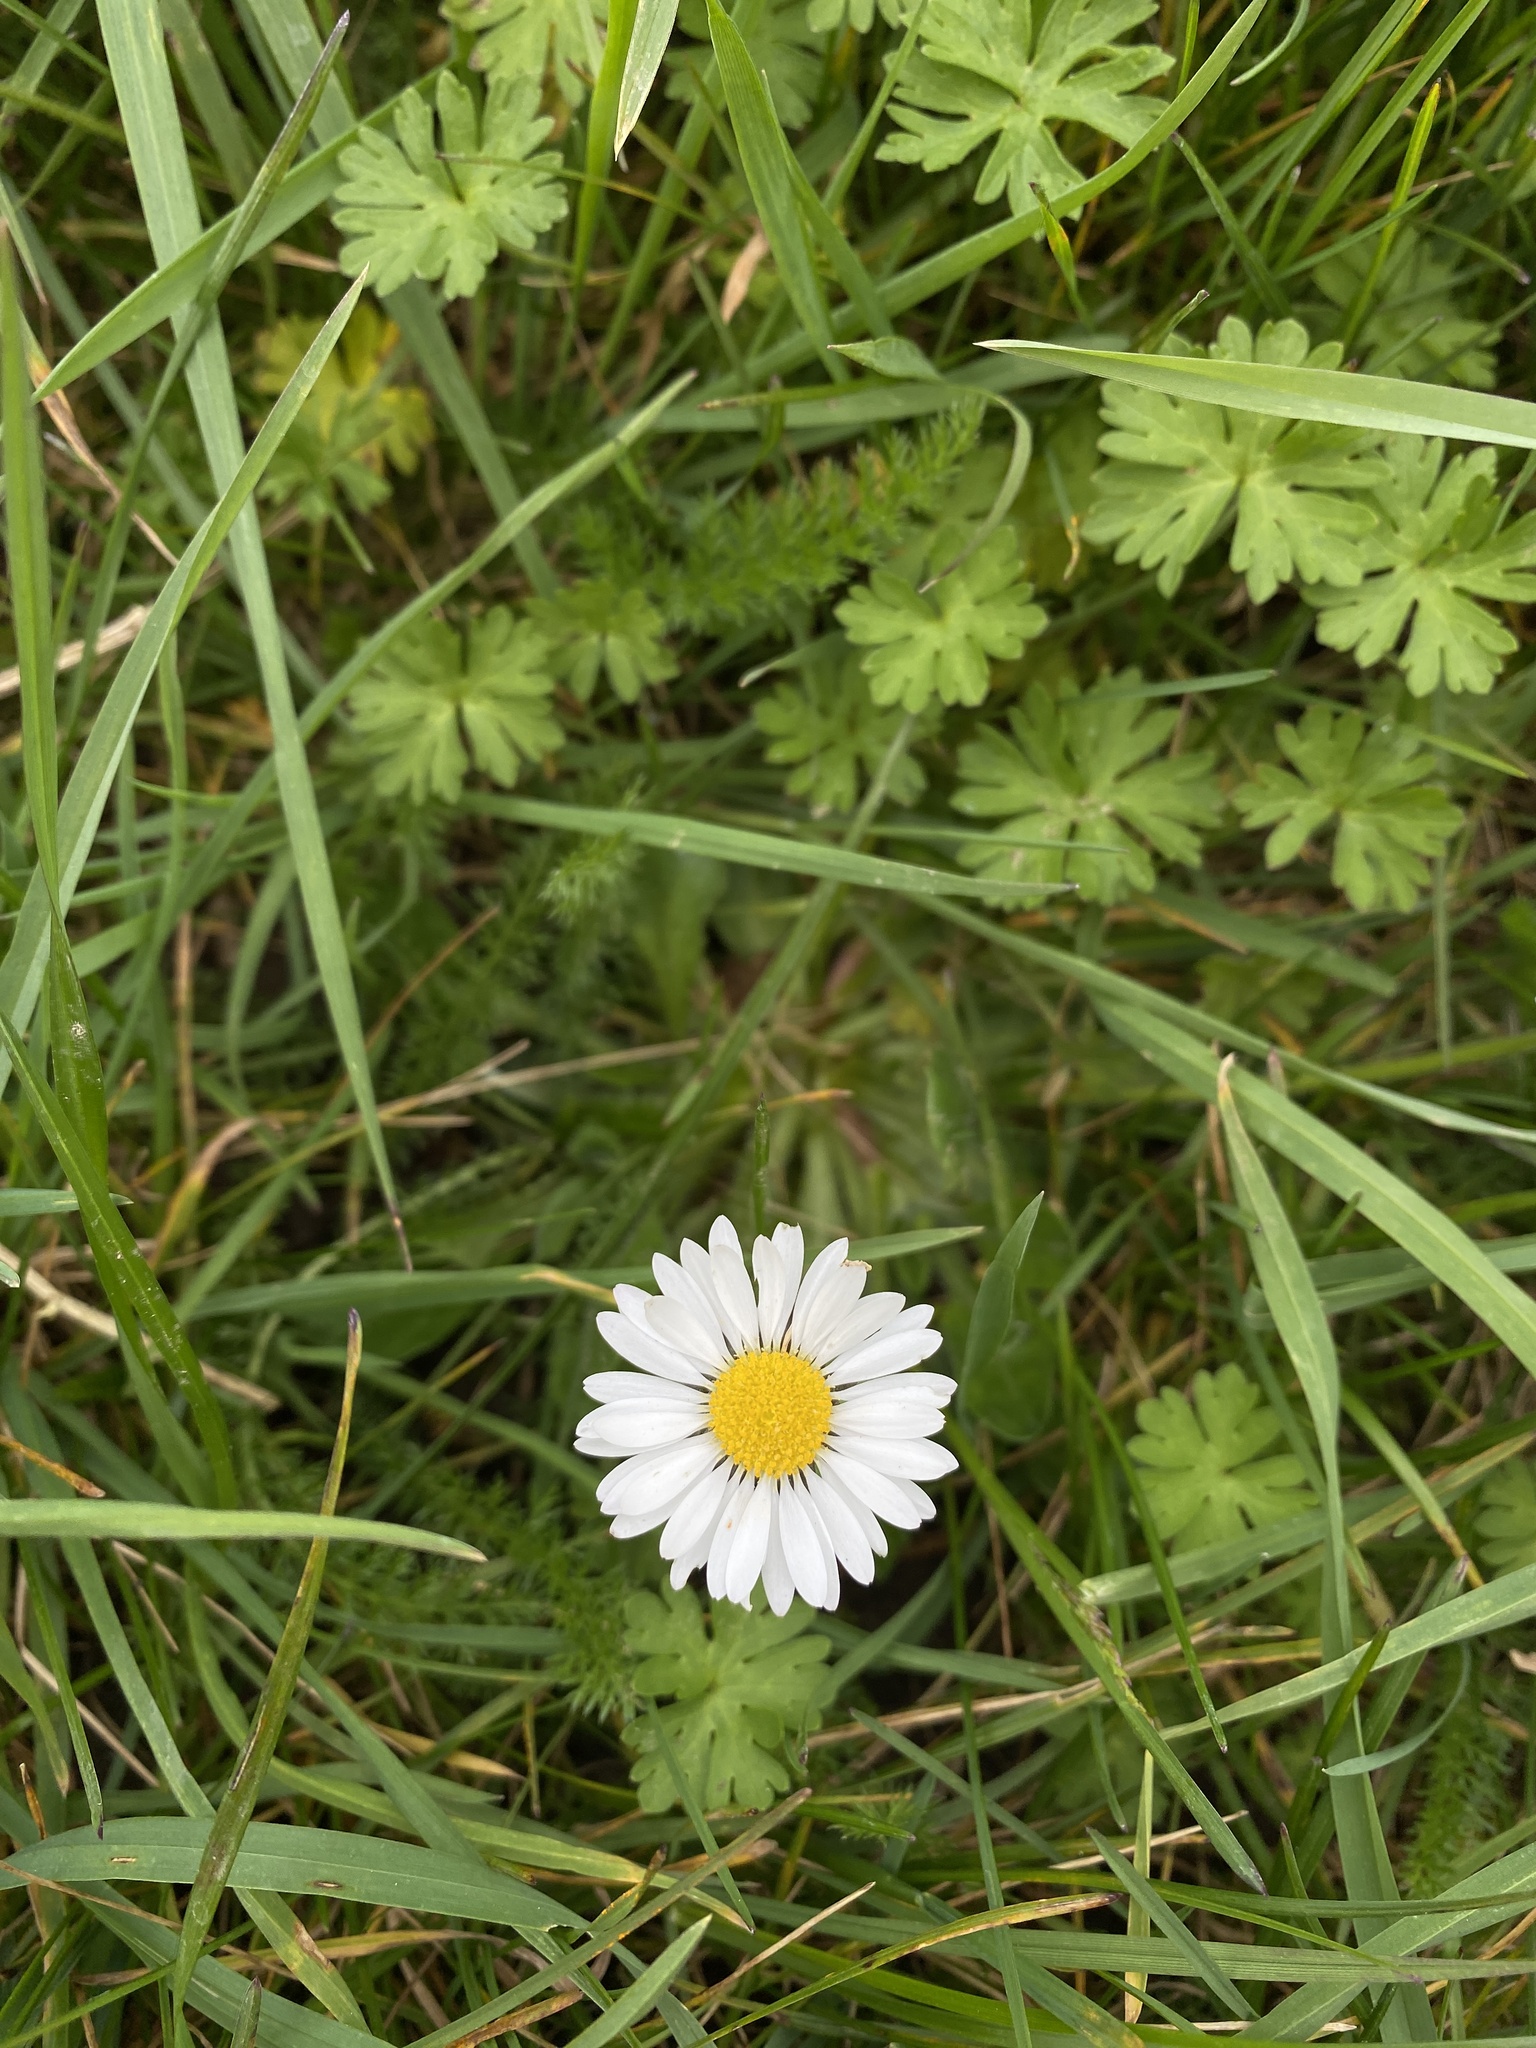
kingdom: Plantae
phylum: Tracheophyta
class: Magnoliopsida
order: Asterales
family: Asteraceae
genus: Bellis
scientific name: Bellis perennis
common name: Lawndaisy
